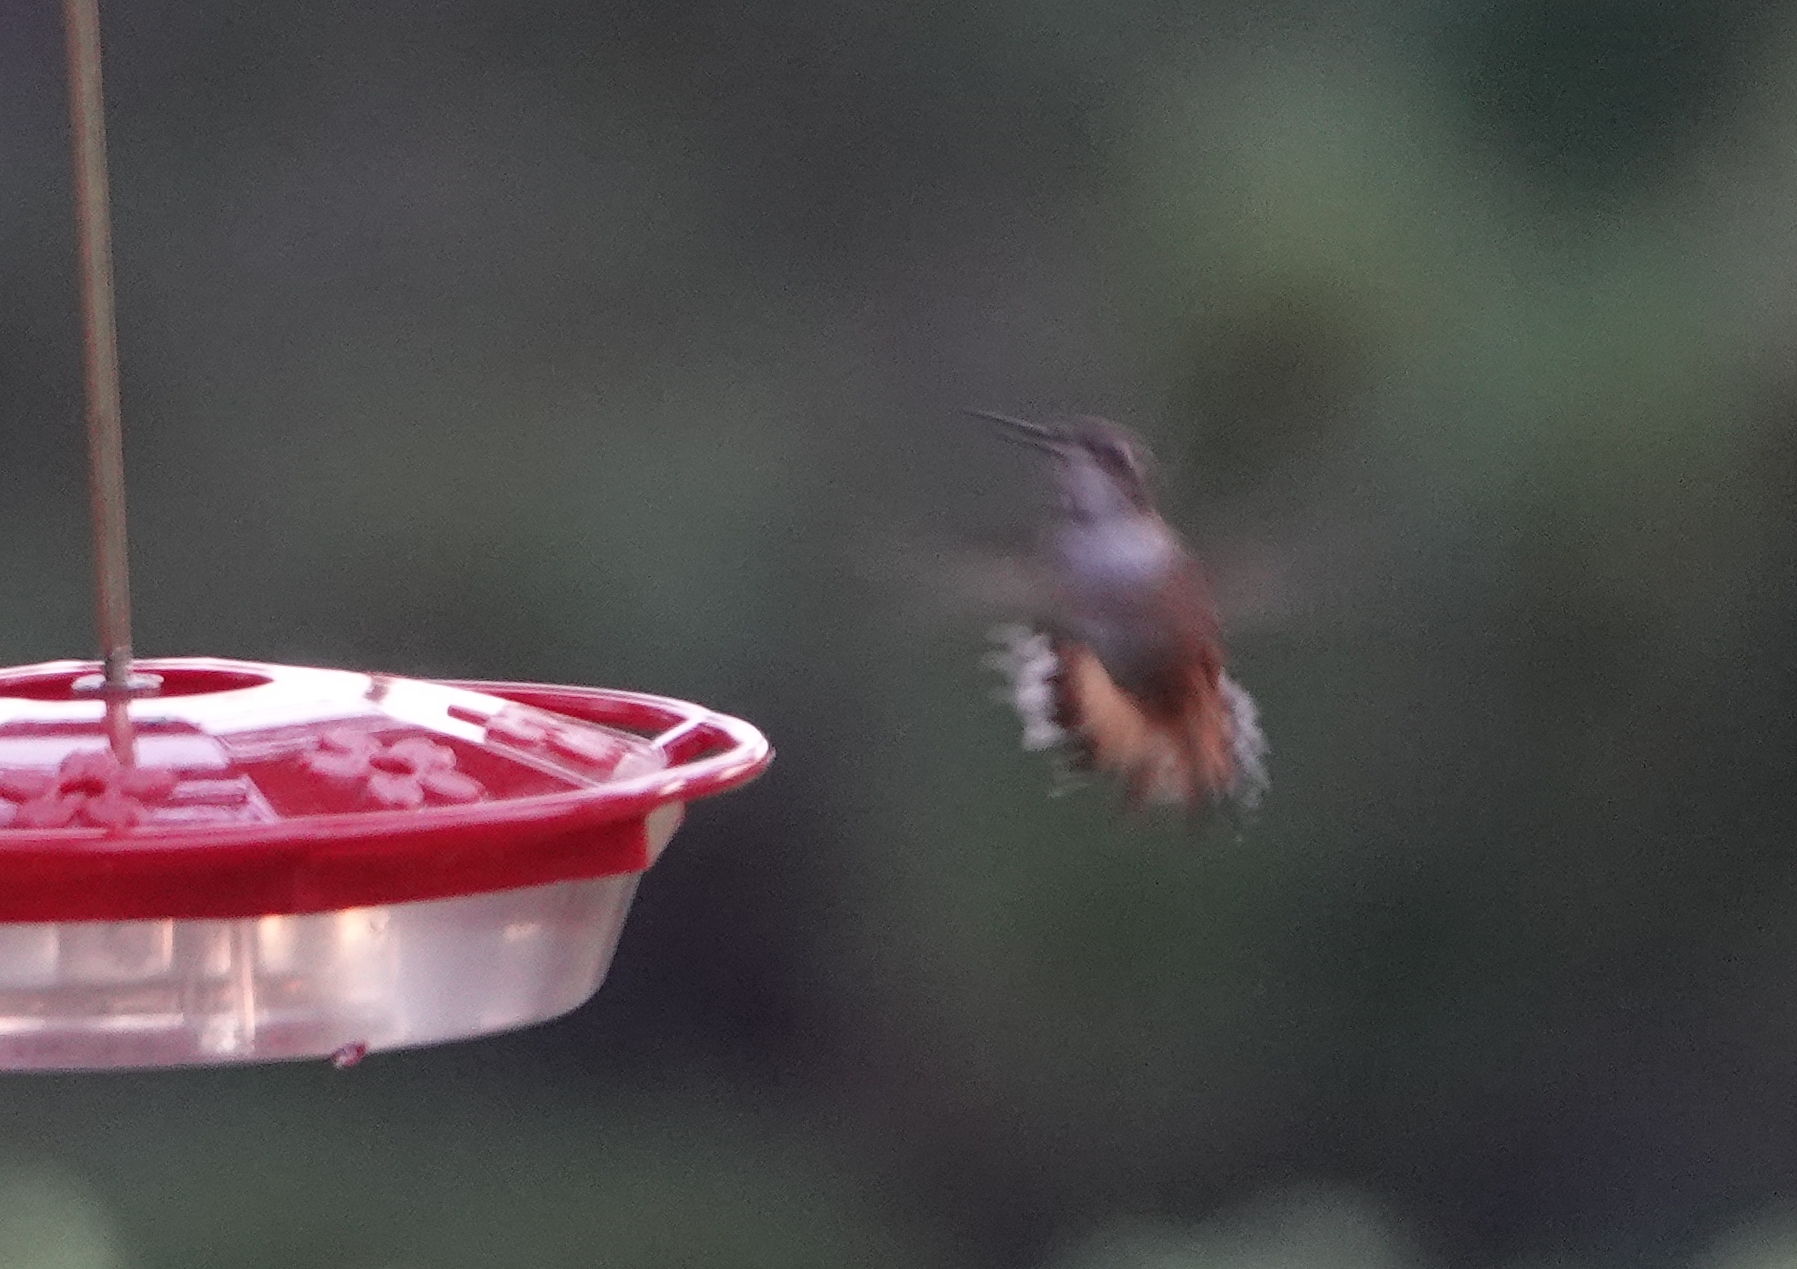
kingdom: Animalia
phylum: Chordata
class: Aves
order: Apodiformes
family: Trochilidae
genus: Selasphorus
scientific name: Selasphorus rufus
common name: Rufous hummingbird
